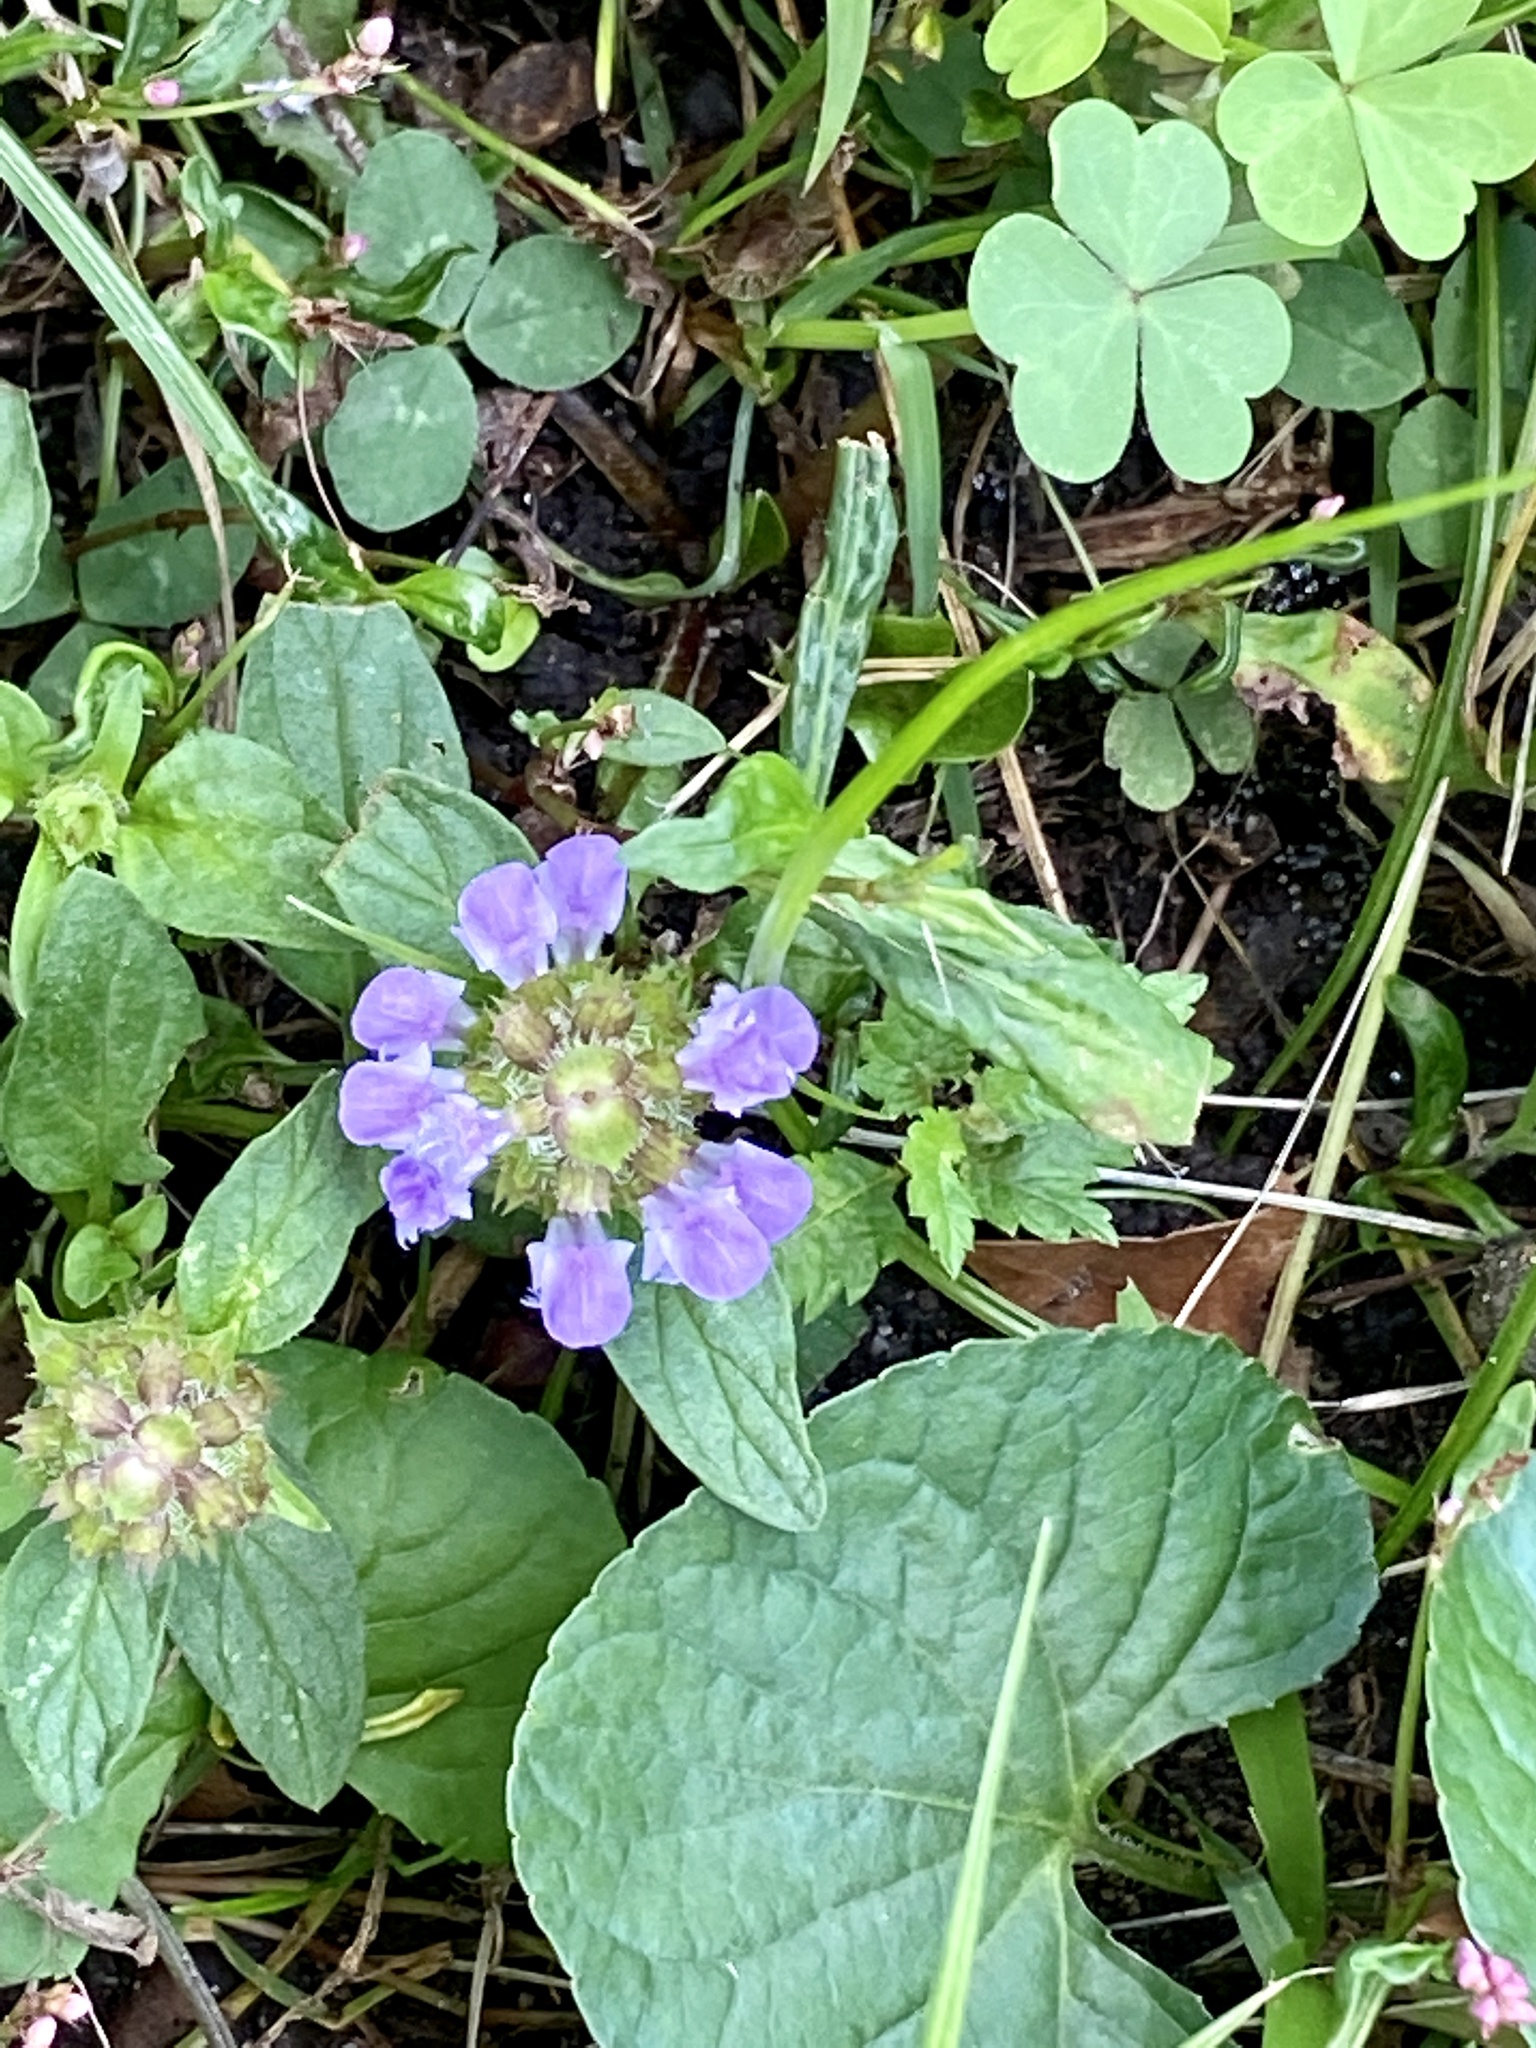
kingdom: Plantae
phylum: Tracheophyta
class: Magnoliopsida
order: Lamiales
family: Lamiaceae
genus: Prunella
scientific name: Prunella vulgaris
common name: Heal-all
